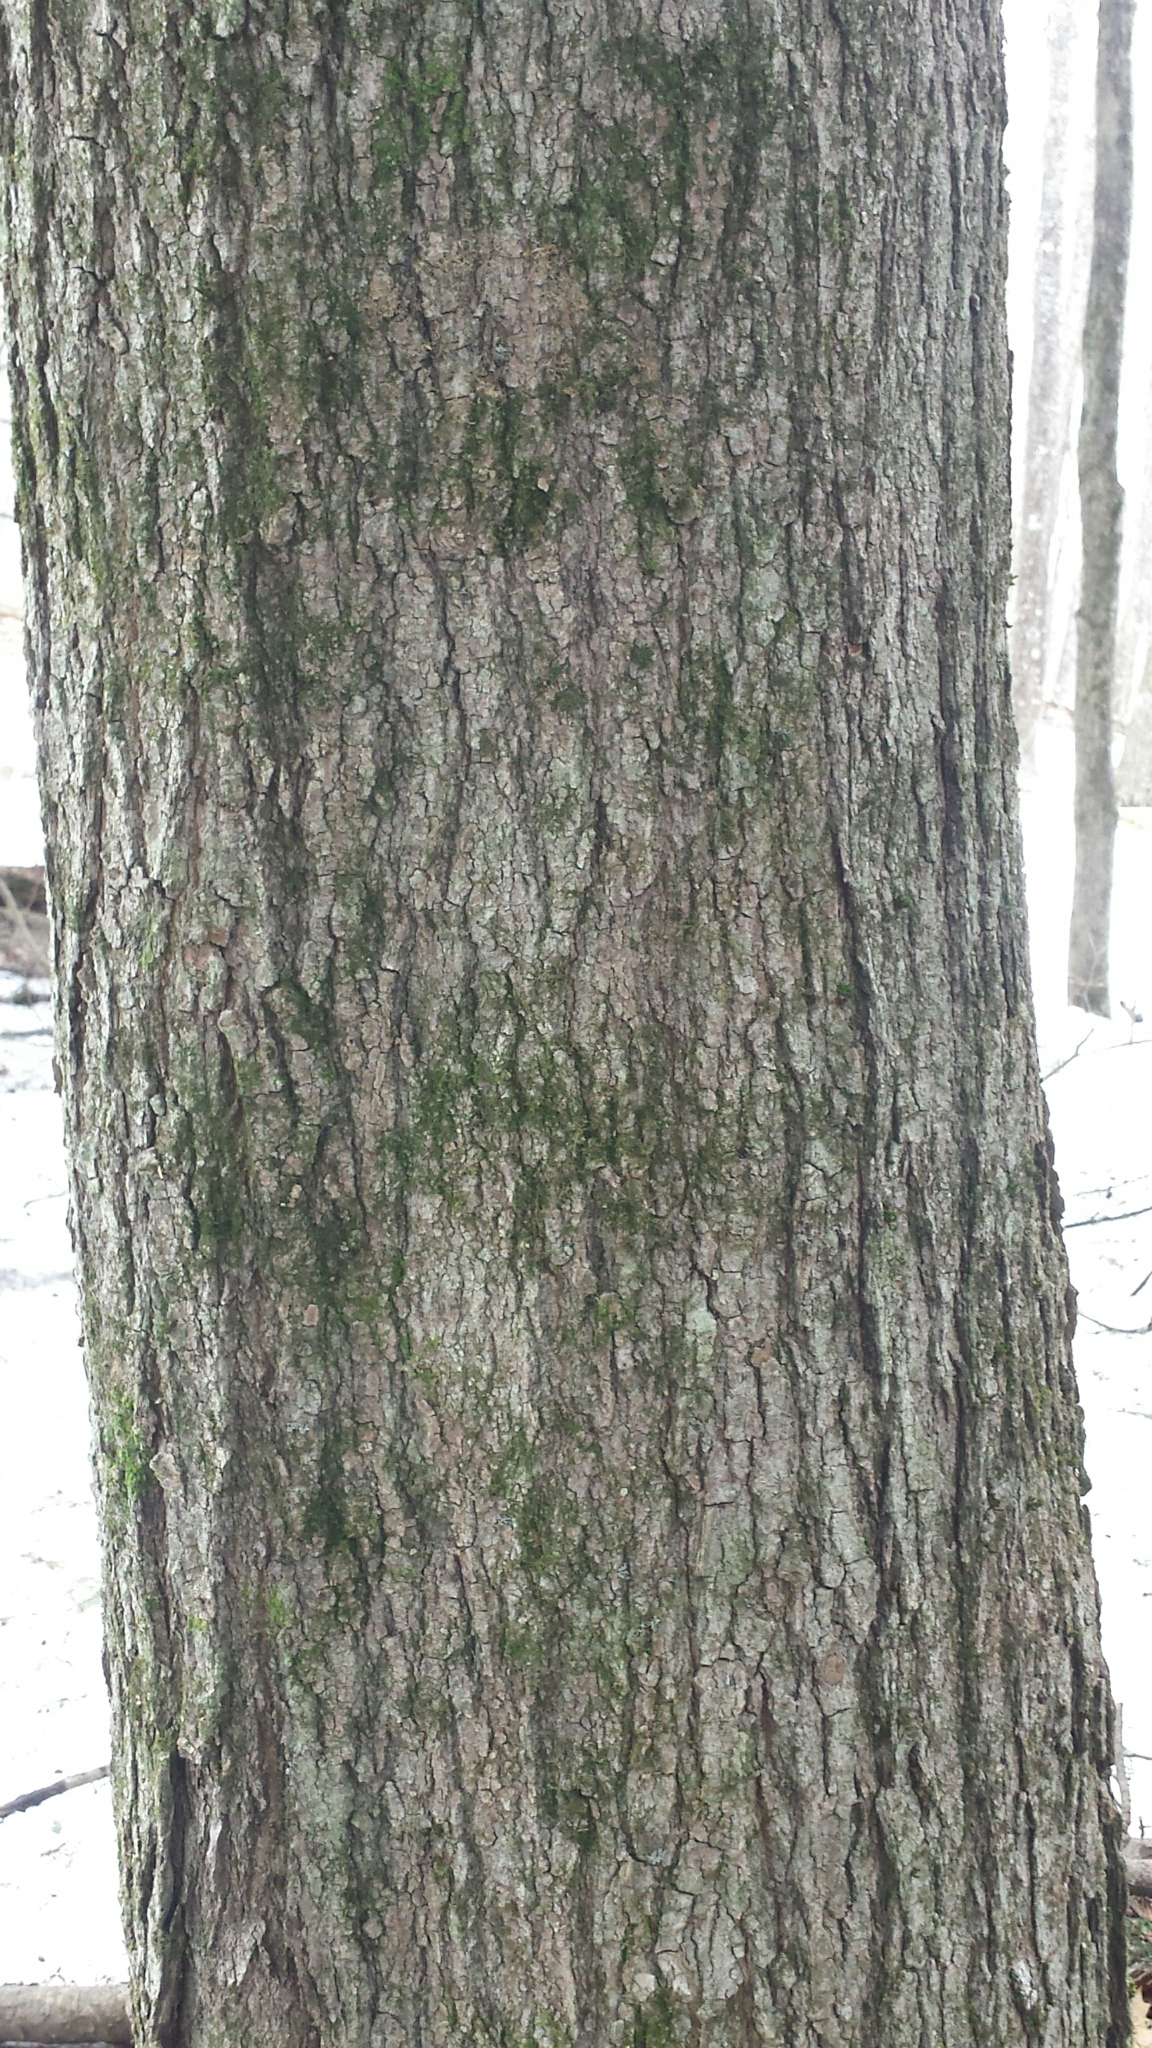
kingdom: Plantae
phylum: Tracheophyta
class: Magnoliopsida
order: Sapindales
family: Sapindaceae
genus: Acer
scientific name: Acer saccharum
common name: Sugar maple
